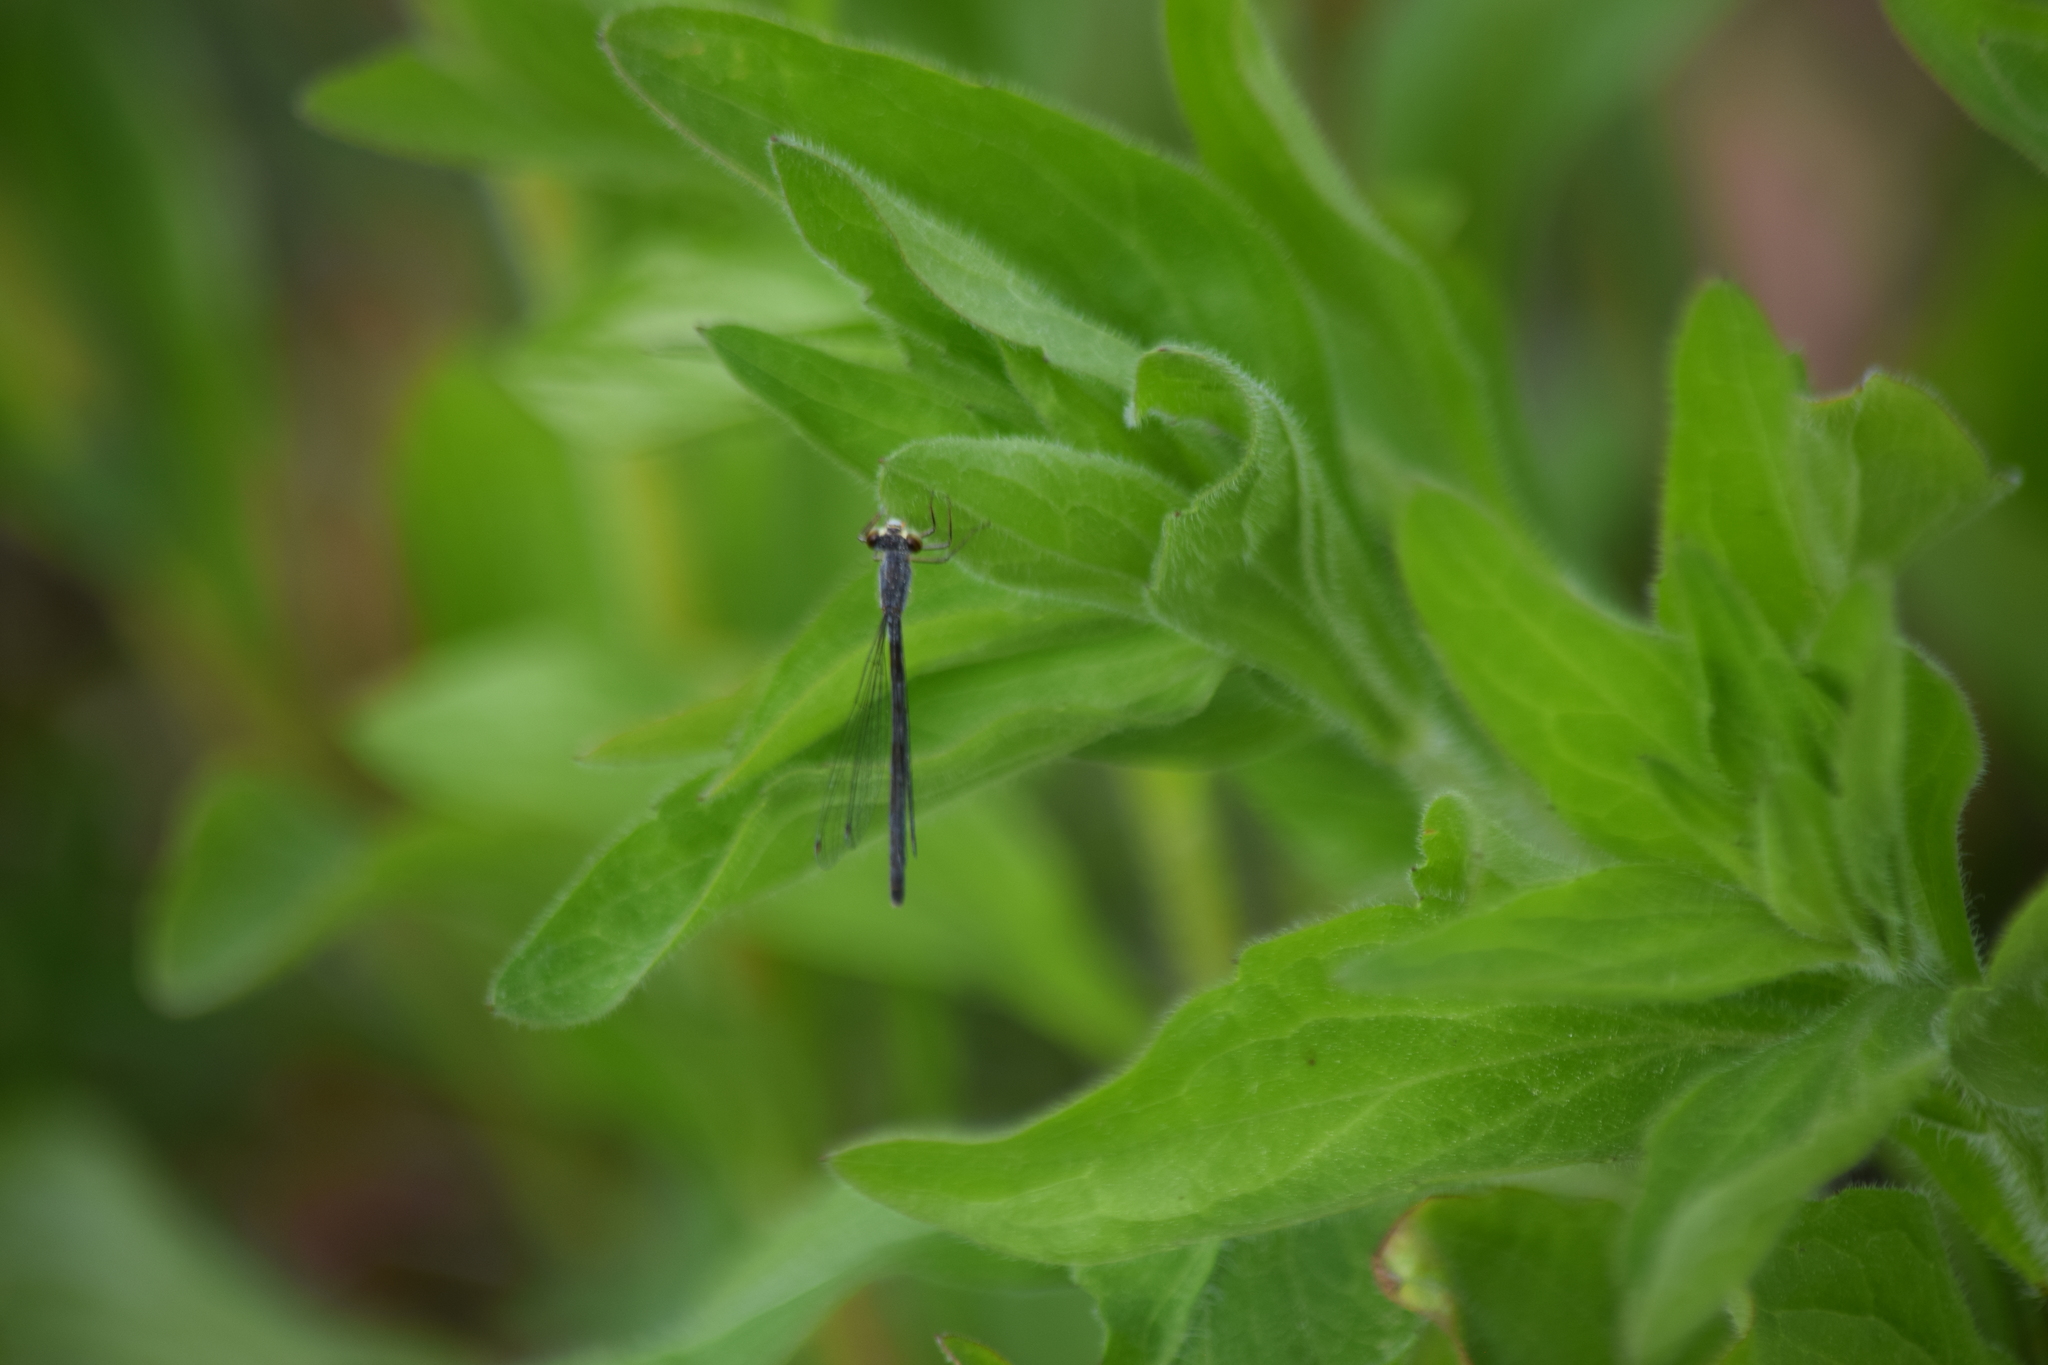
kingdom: Animalia
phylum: Arthropoda
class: Insecta
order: Odonata
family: Coenagrionidae
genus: Ischnura
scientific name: Ischnura posita
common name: Fragile forktail
